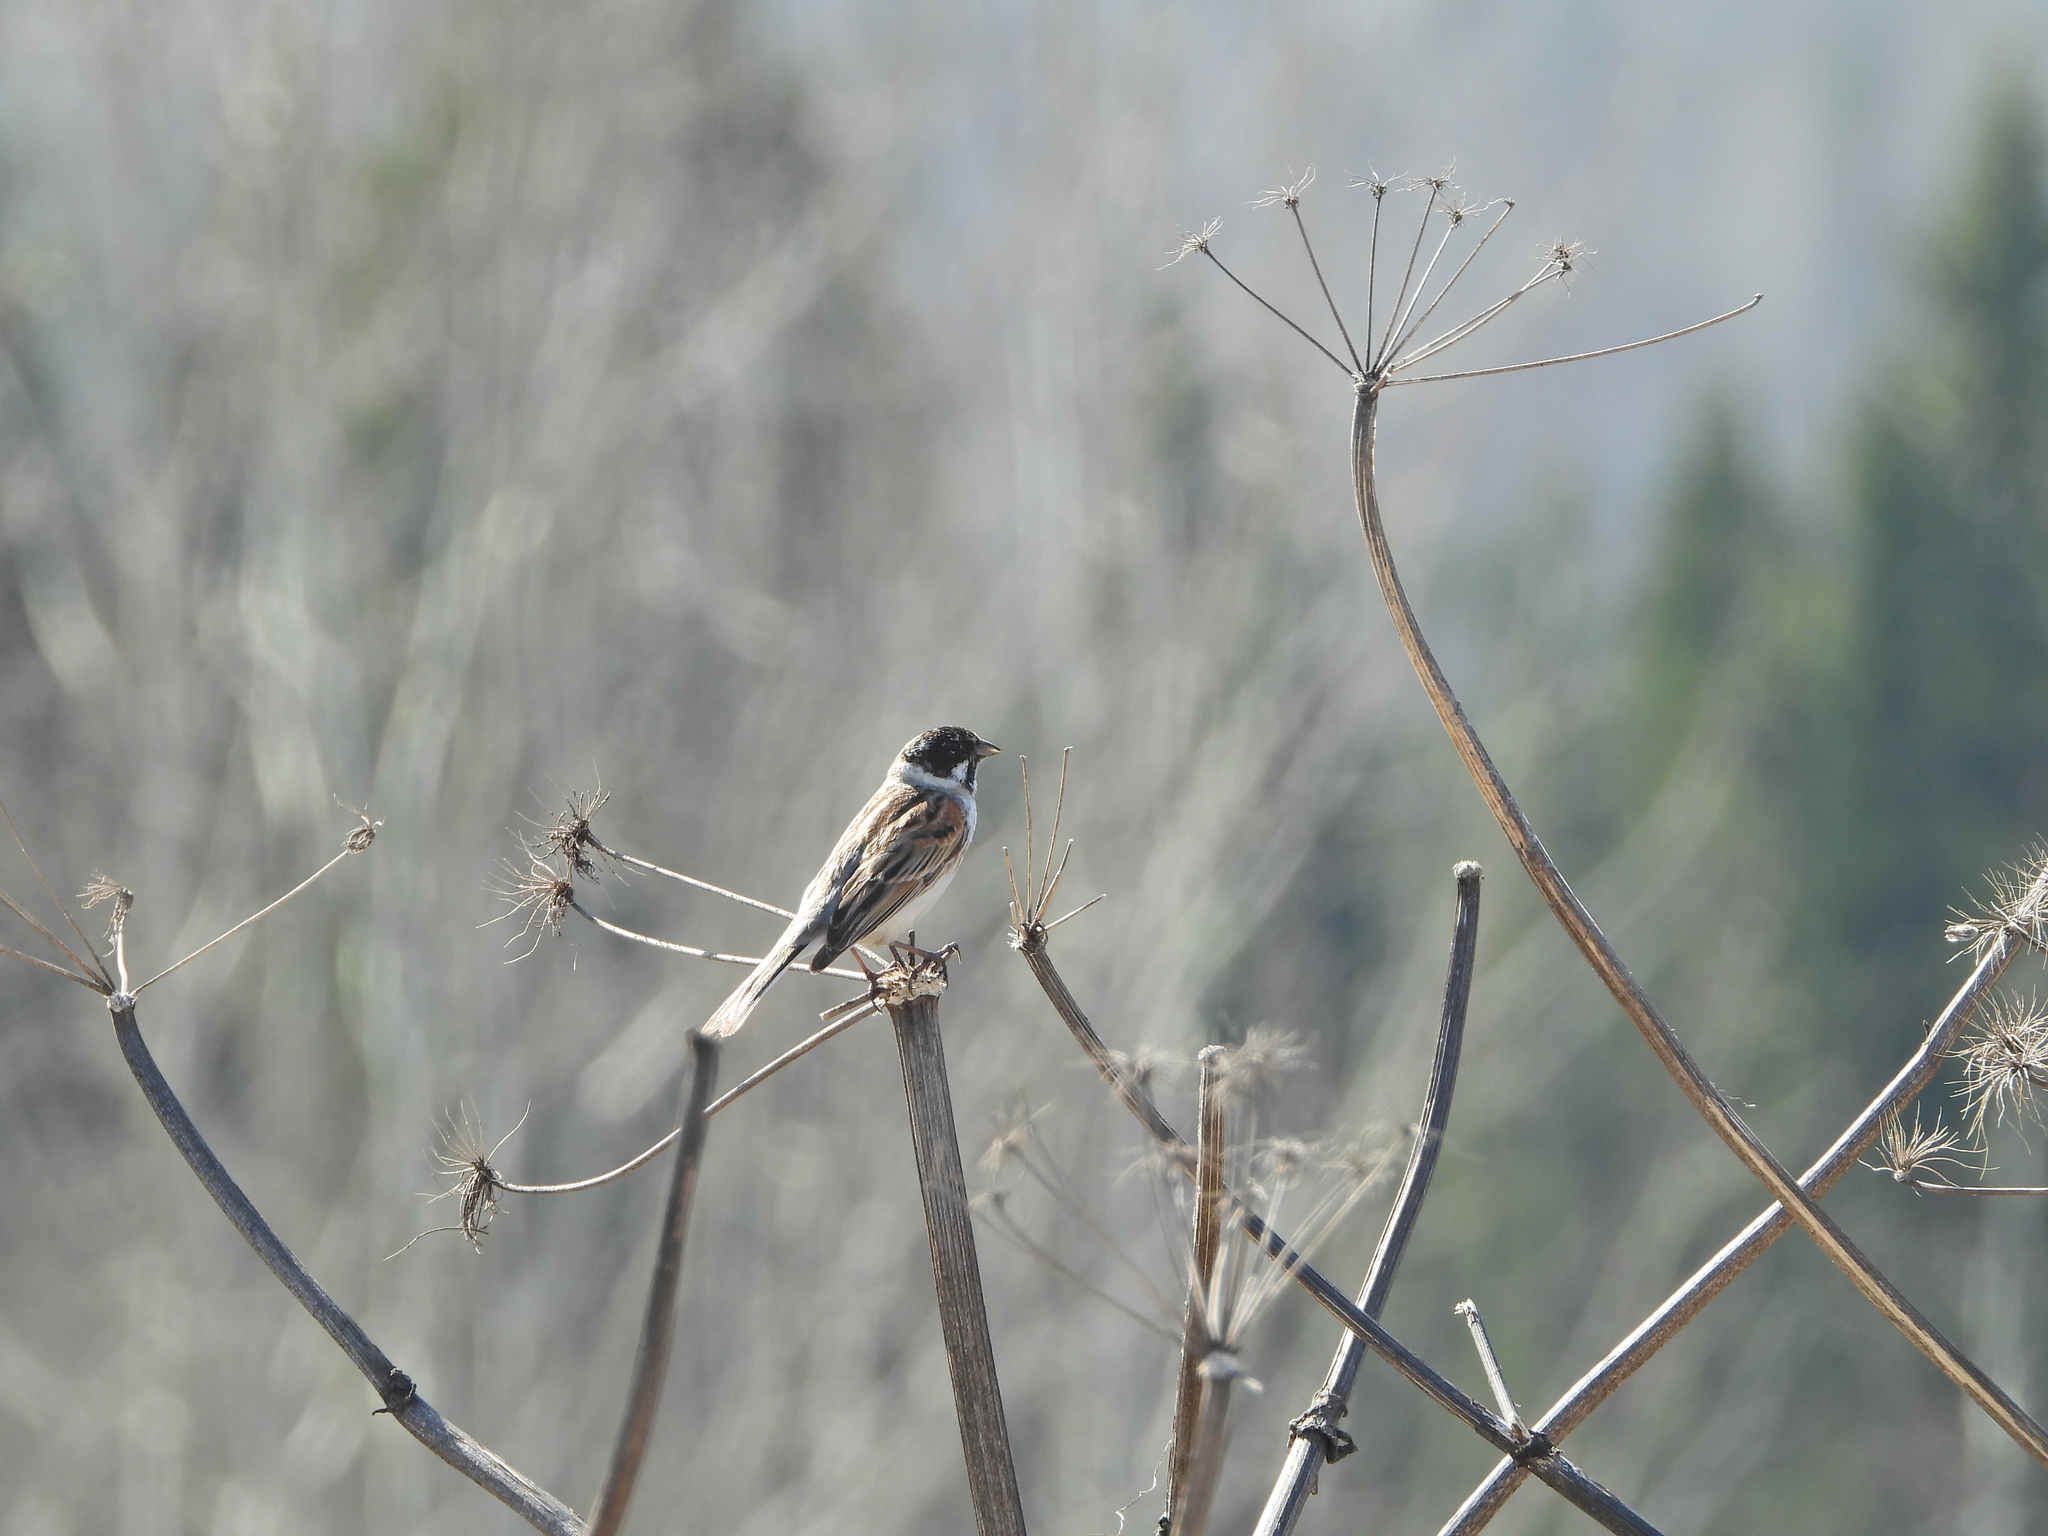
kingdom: Animalia
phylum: Chordata
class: Aves
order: Passeriformes
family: Emberizidae
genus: Emberiza
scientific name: Emberiza schoeniclus
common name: Reed bunting
